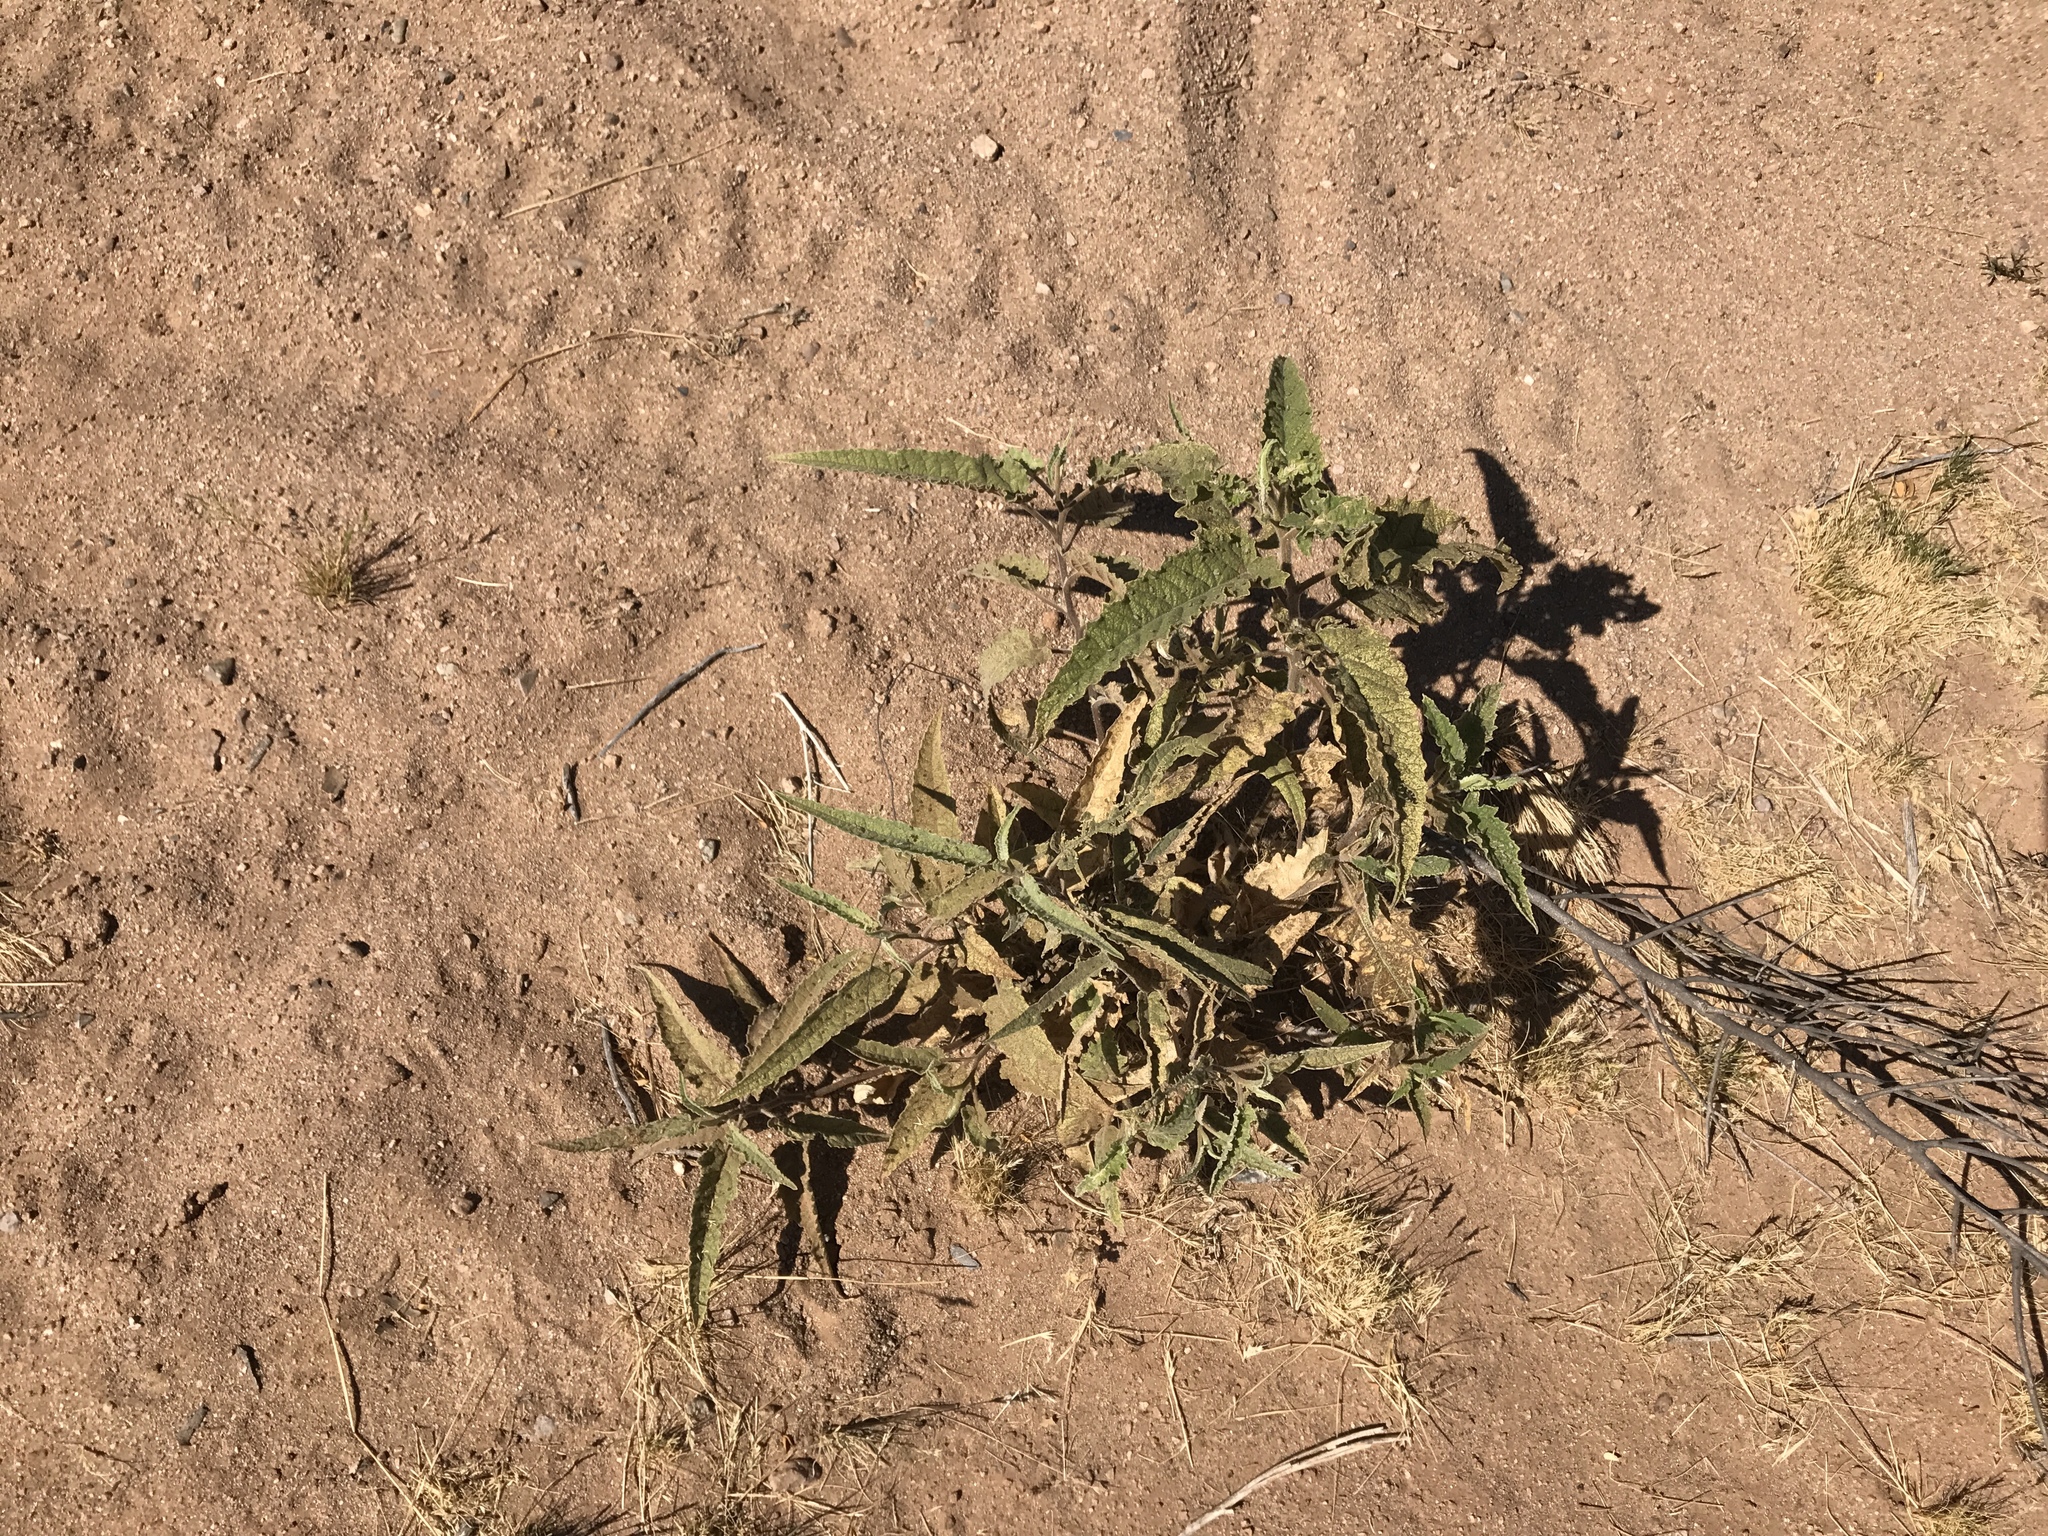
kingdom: Plantae
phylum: Tracheophyta
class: Magnoliopsida
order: Asterales
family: Asteraceae
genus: Ambrosia
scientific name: Ambrosia ambrosioides
